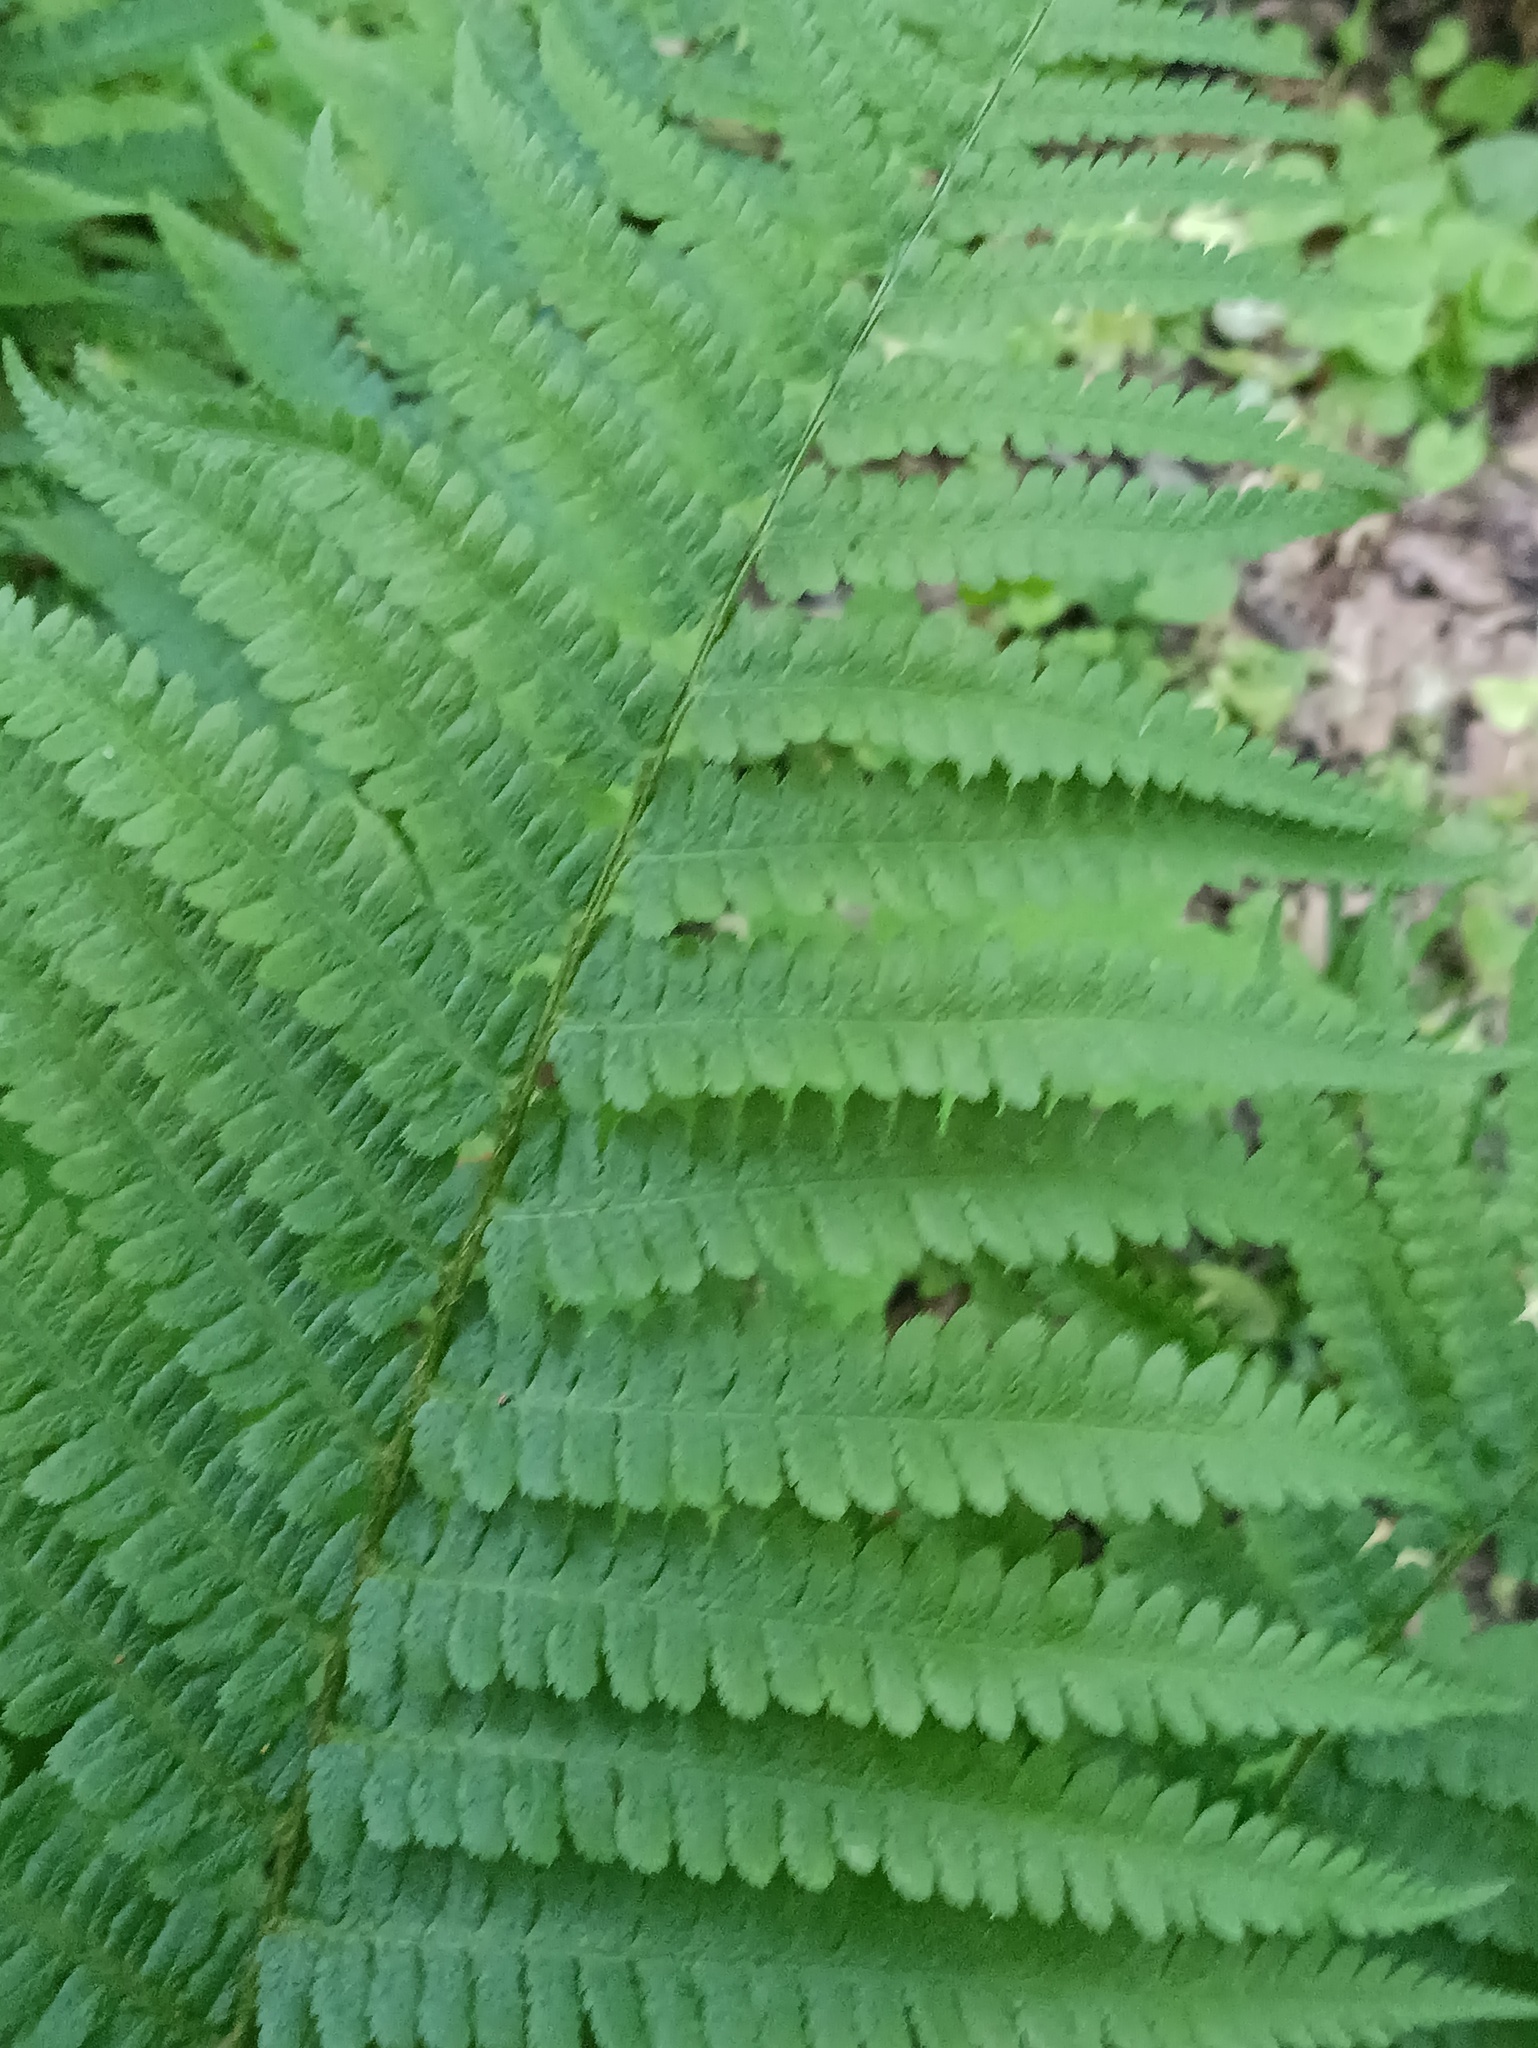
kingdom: Plantae
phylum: Tracheophyta
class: Polypodiopsida
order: Polypodiales
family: Dryopteridaceae
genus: Dryopteris
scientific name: Dryopteris filix-mas
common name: Male fern
